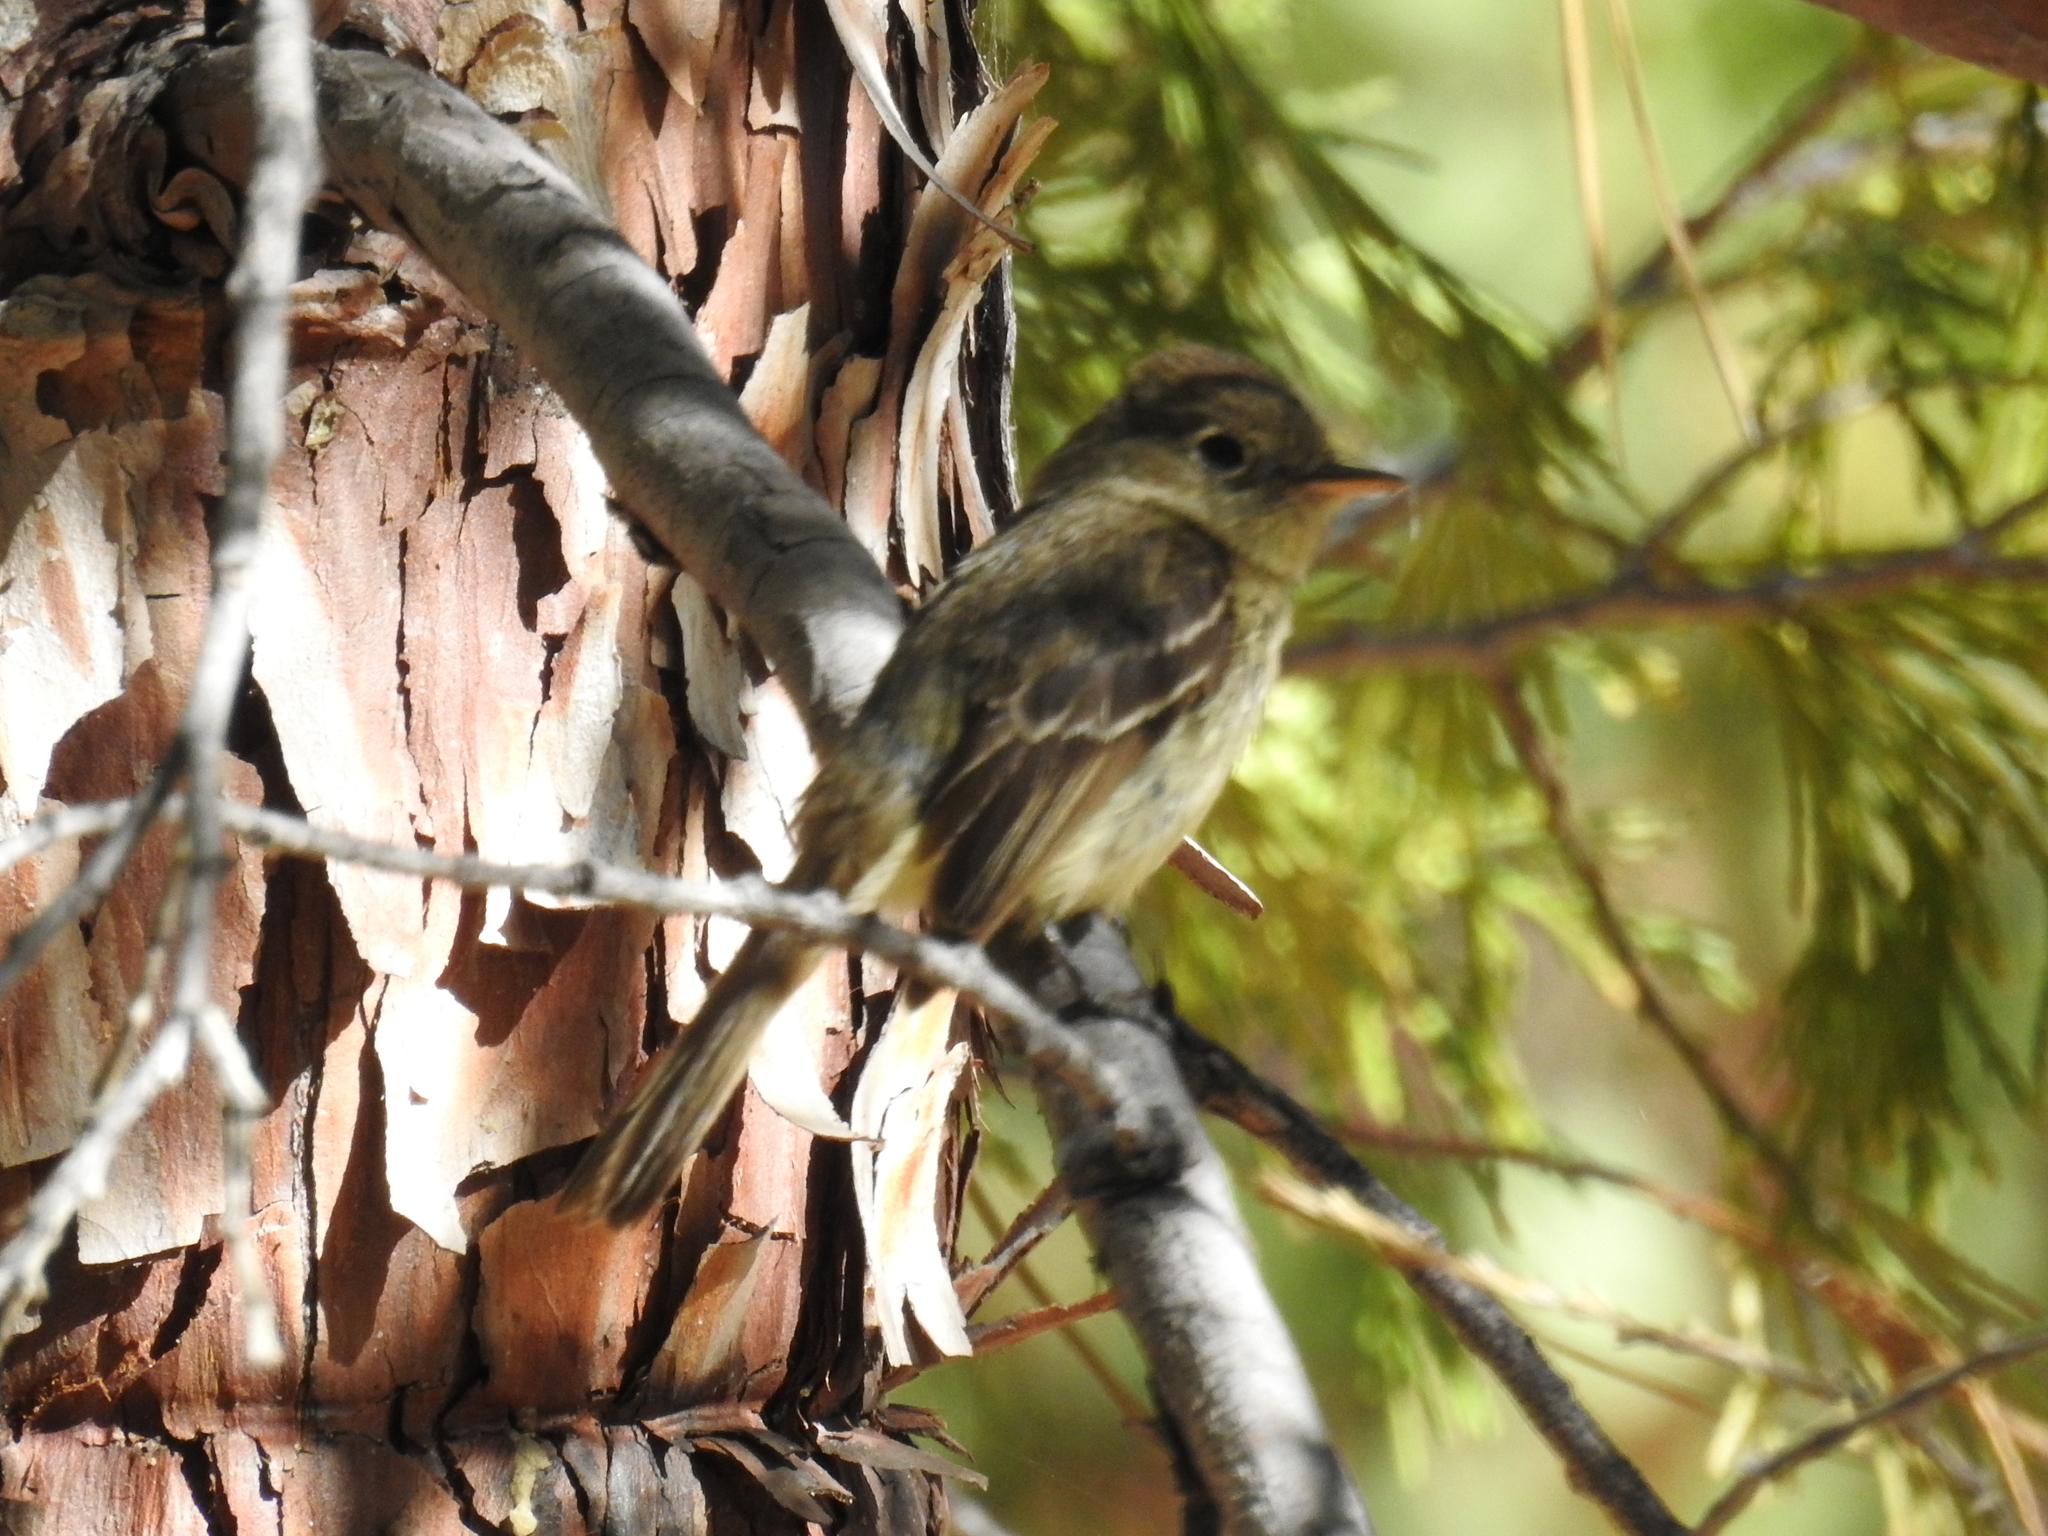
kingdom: Animalia
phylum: Chordata
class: Aves
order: Passeriformes
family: Tyrannidae
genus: Empidonax
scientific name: Empidonax difficilis
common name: Pacific-slope flycatcher
